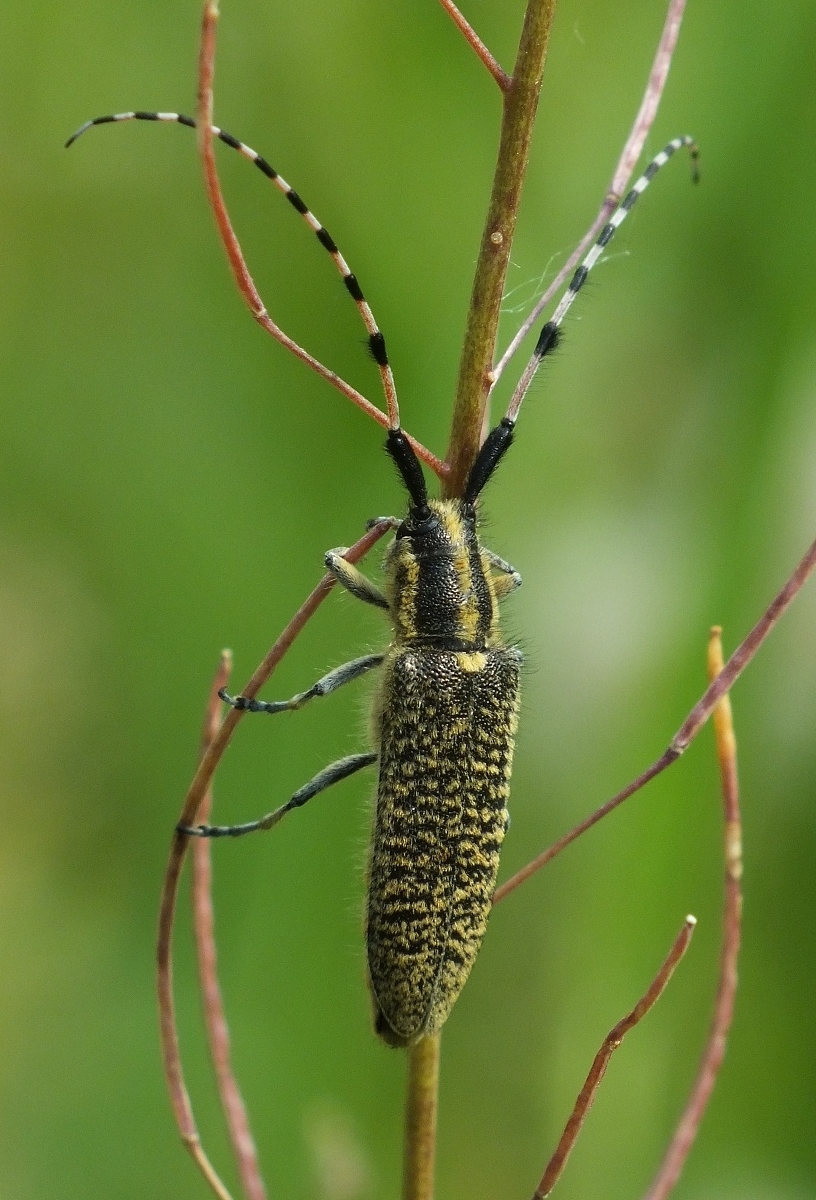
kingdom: Animalia
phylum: Arthropoda
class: Insecta
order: Coleoptera
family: Cerambycidae
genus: Agapanthia
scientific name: Agapanthia dahlii
